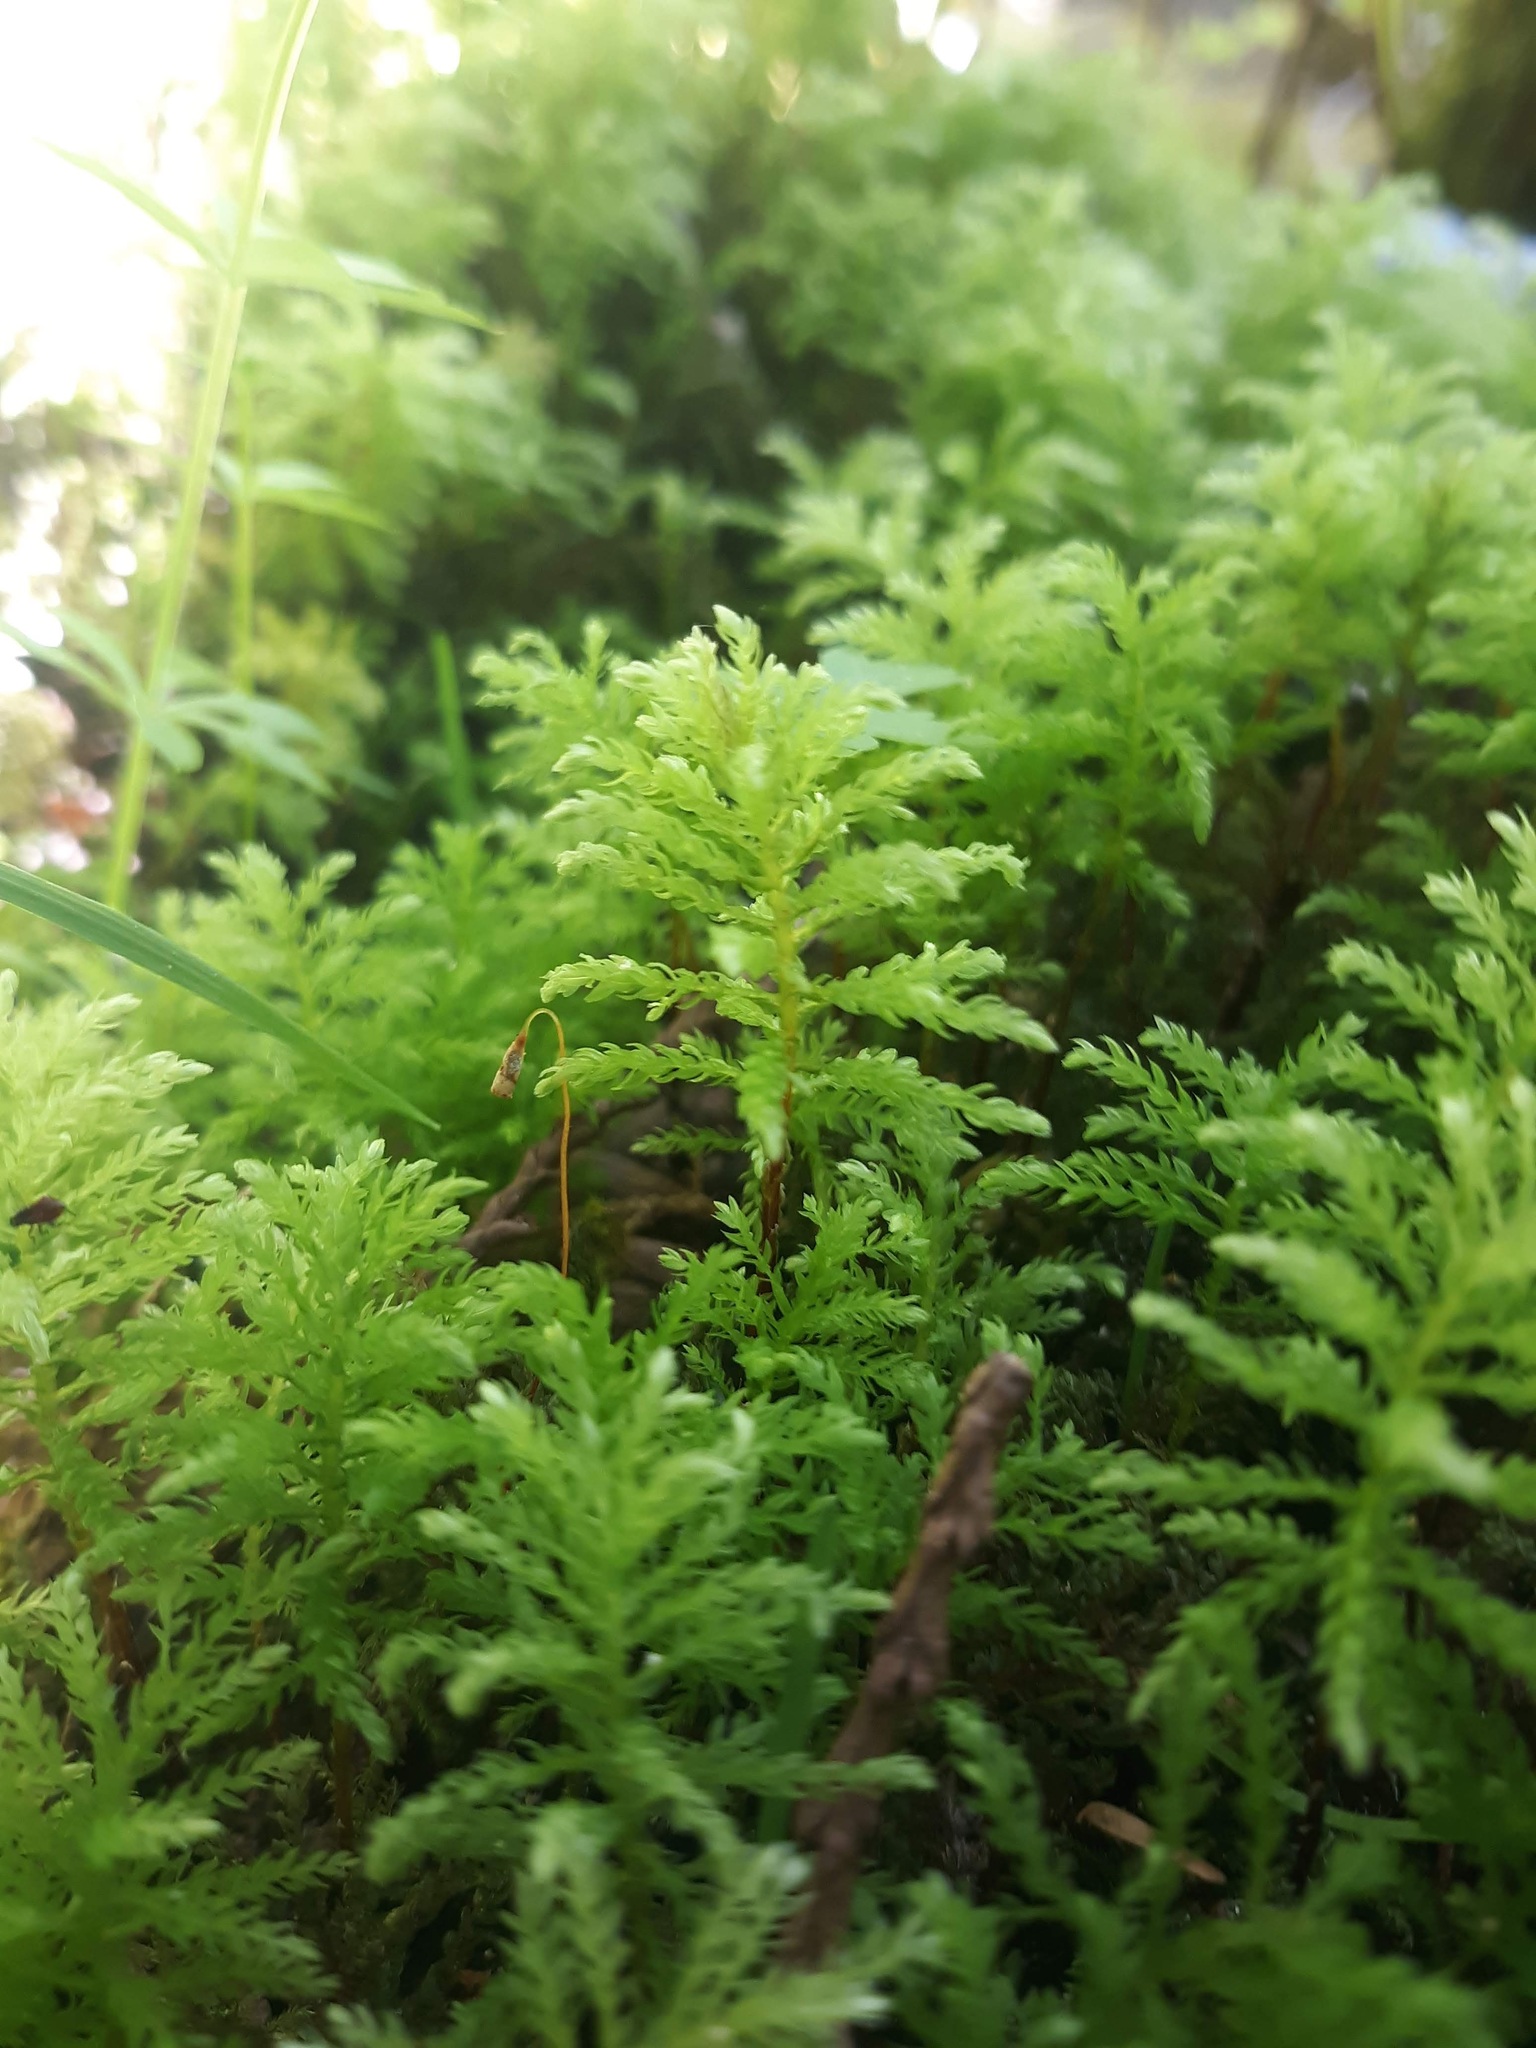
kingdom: Plantae
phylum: Bryophyta
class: Bryopsida
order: Bryales
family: Mniaceae
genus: Leucolepis
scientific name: Leucolepis acanthoneura
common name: Leucolepis umbrella moss
